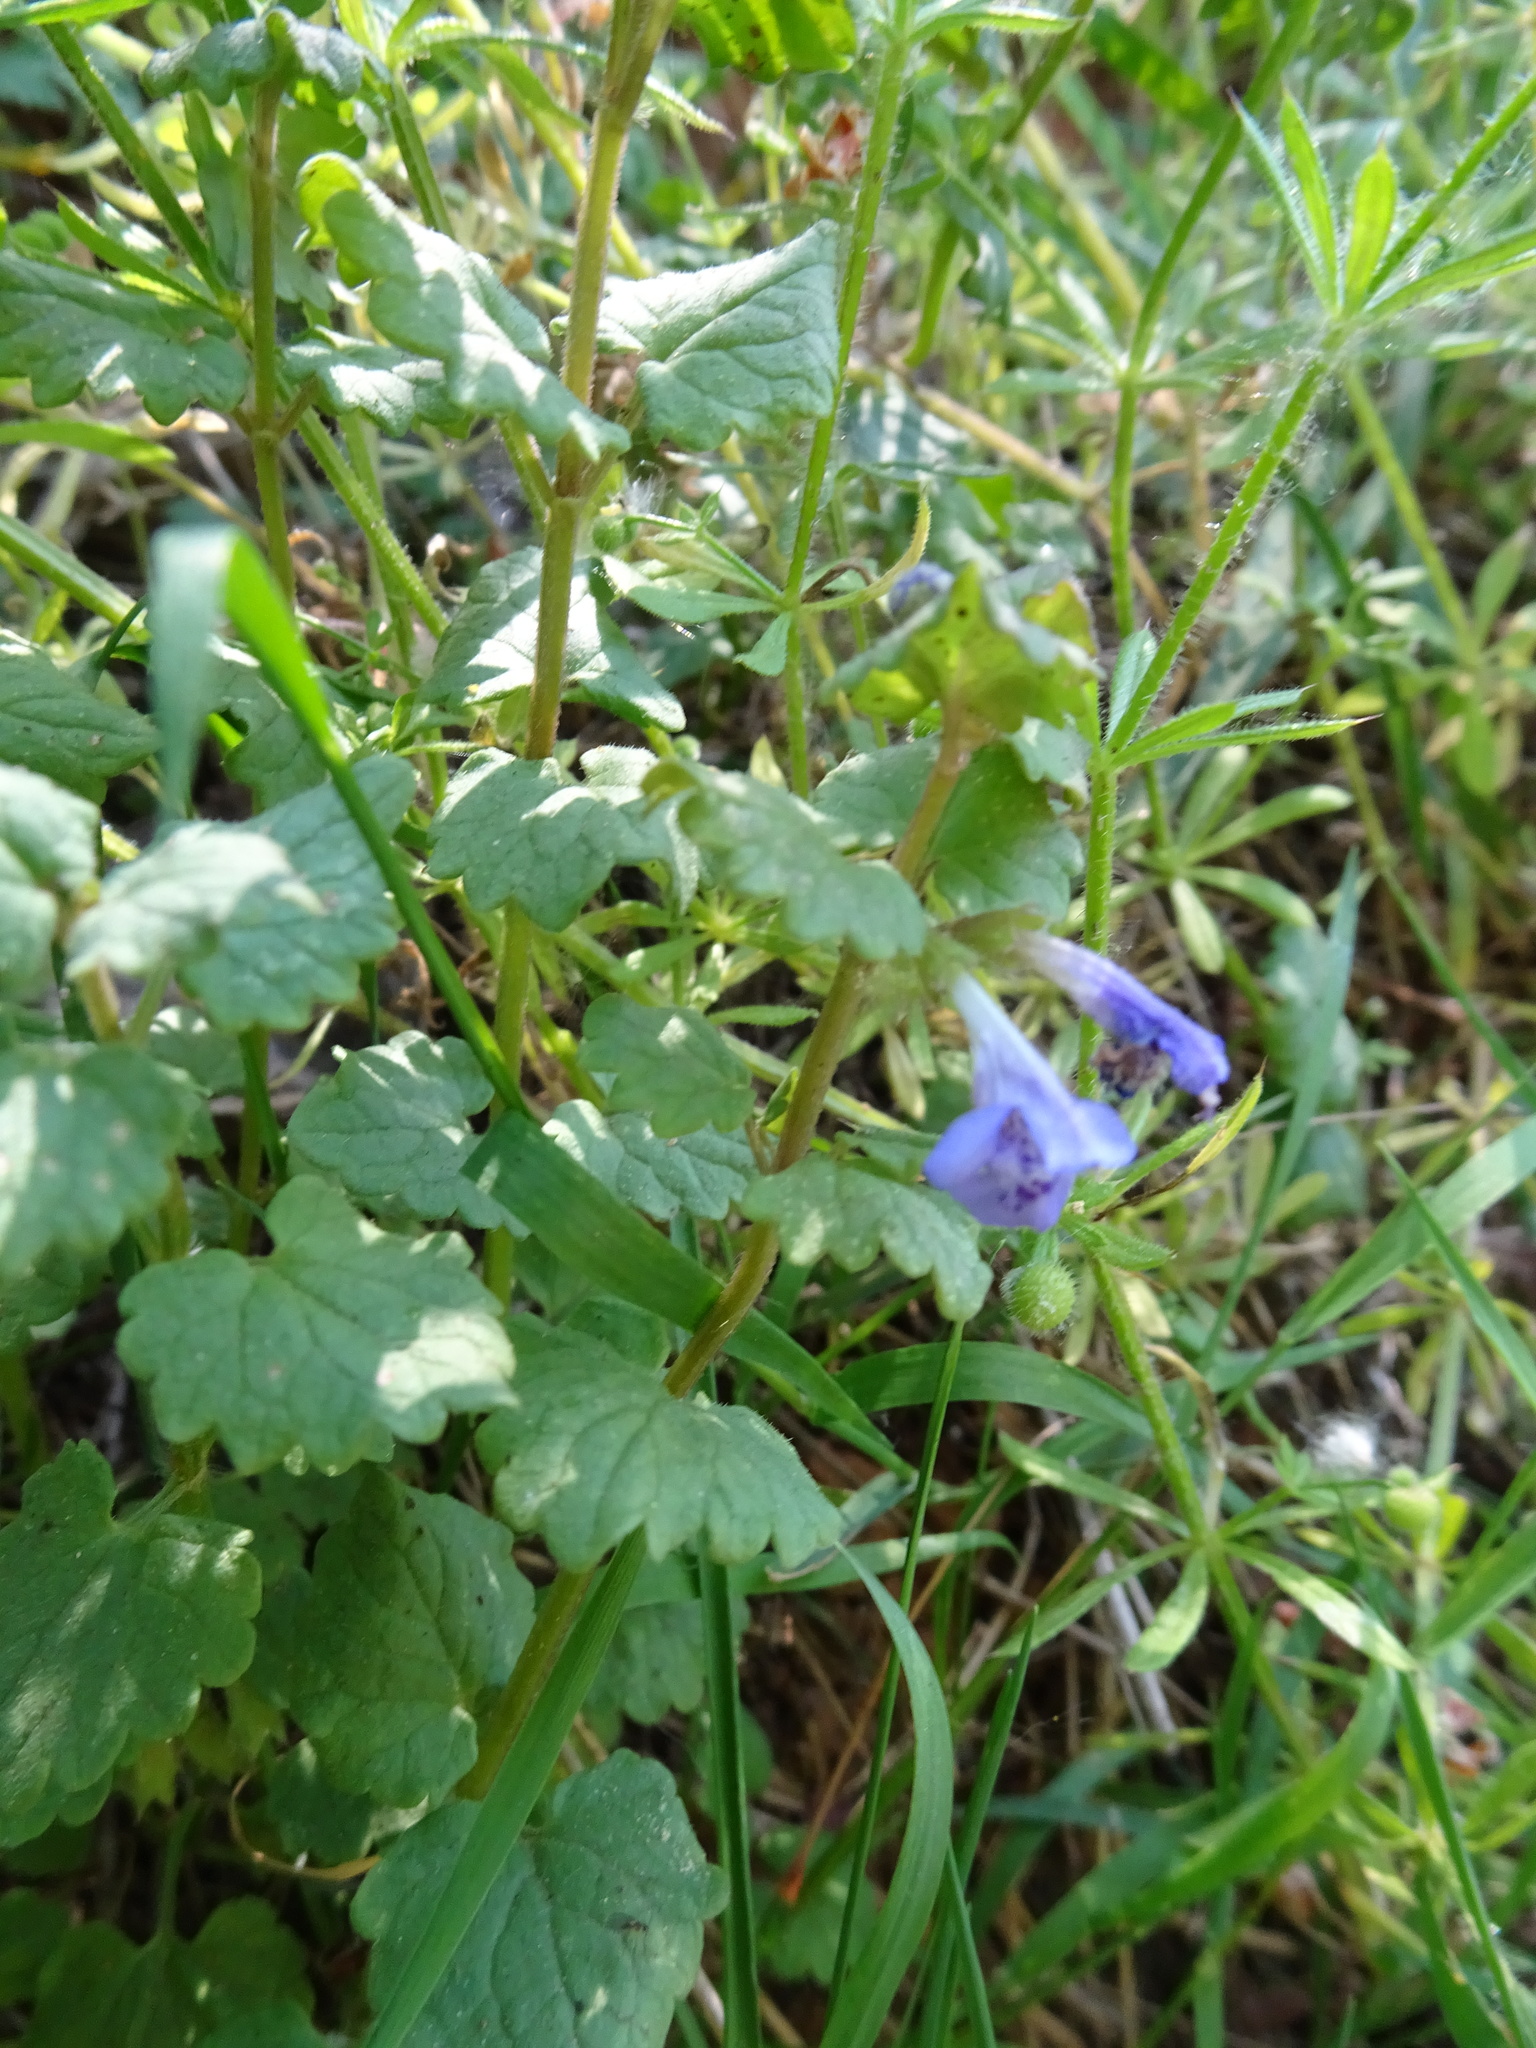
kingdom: Plantae
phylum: Tracheophyta
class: Magnoliopsida
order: Lamiales
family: Lamiaceae
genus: Glechoma
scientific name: Glechoma hederacea
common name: Ground ivy
